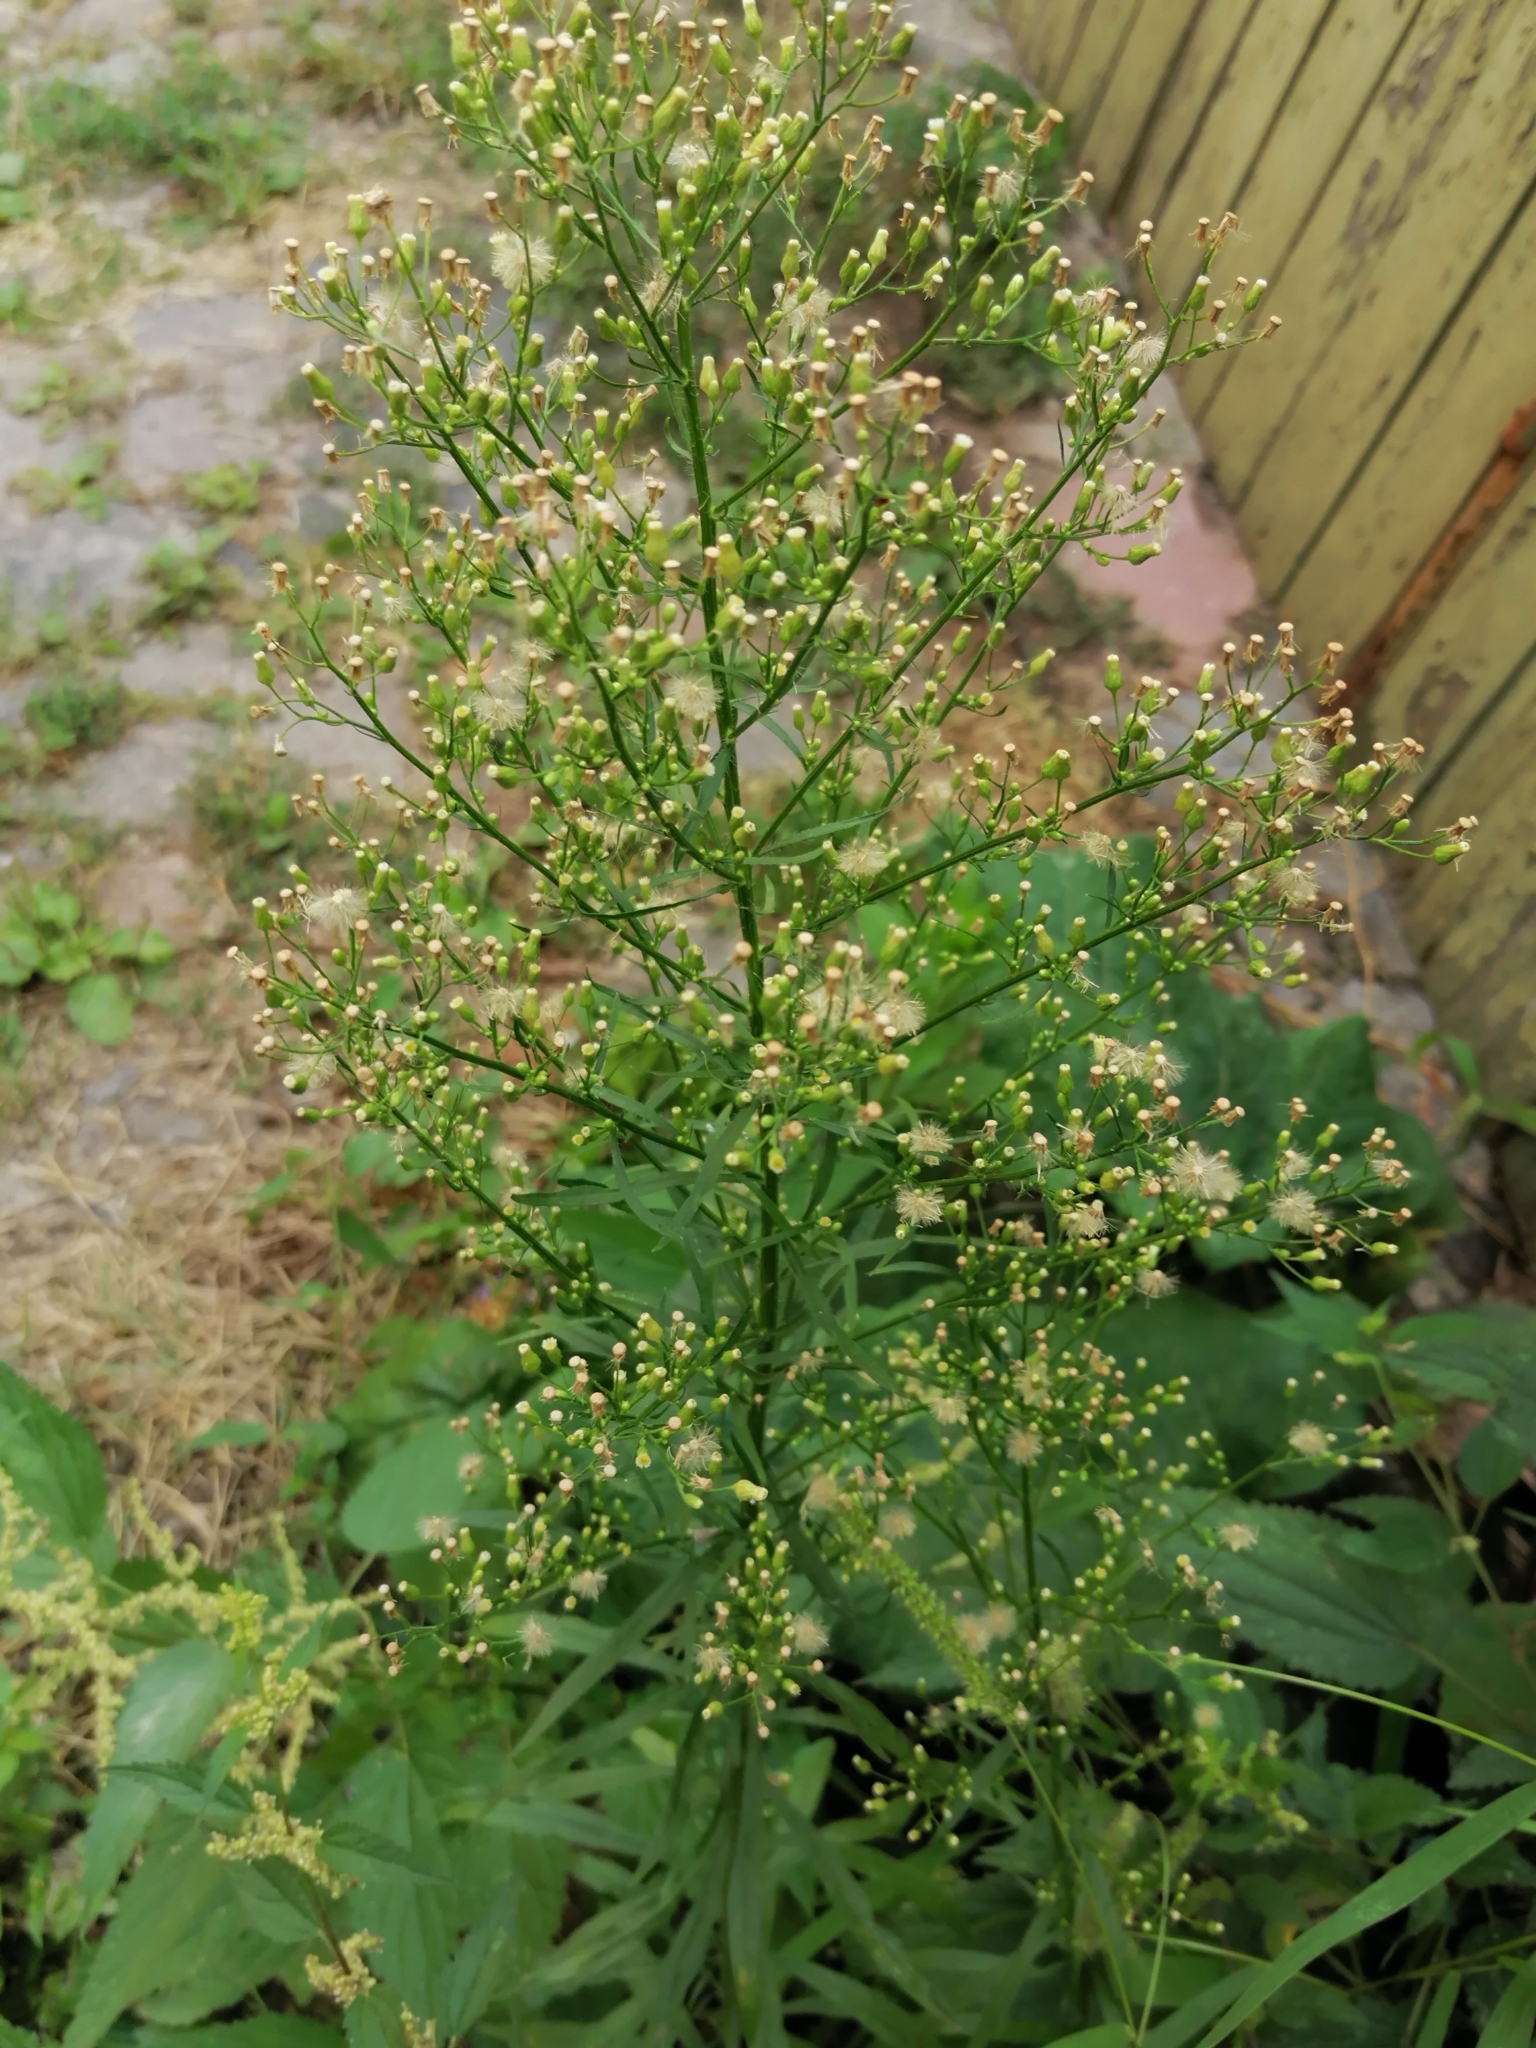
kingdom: Plantae
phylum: Tracheophyta
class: Magnoliopsida
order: Asterales
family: Asteraceae
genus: Erigeron
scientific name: Erigeron canadensis
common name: Canadian fleabane
